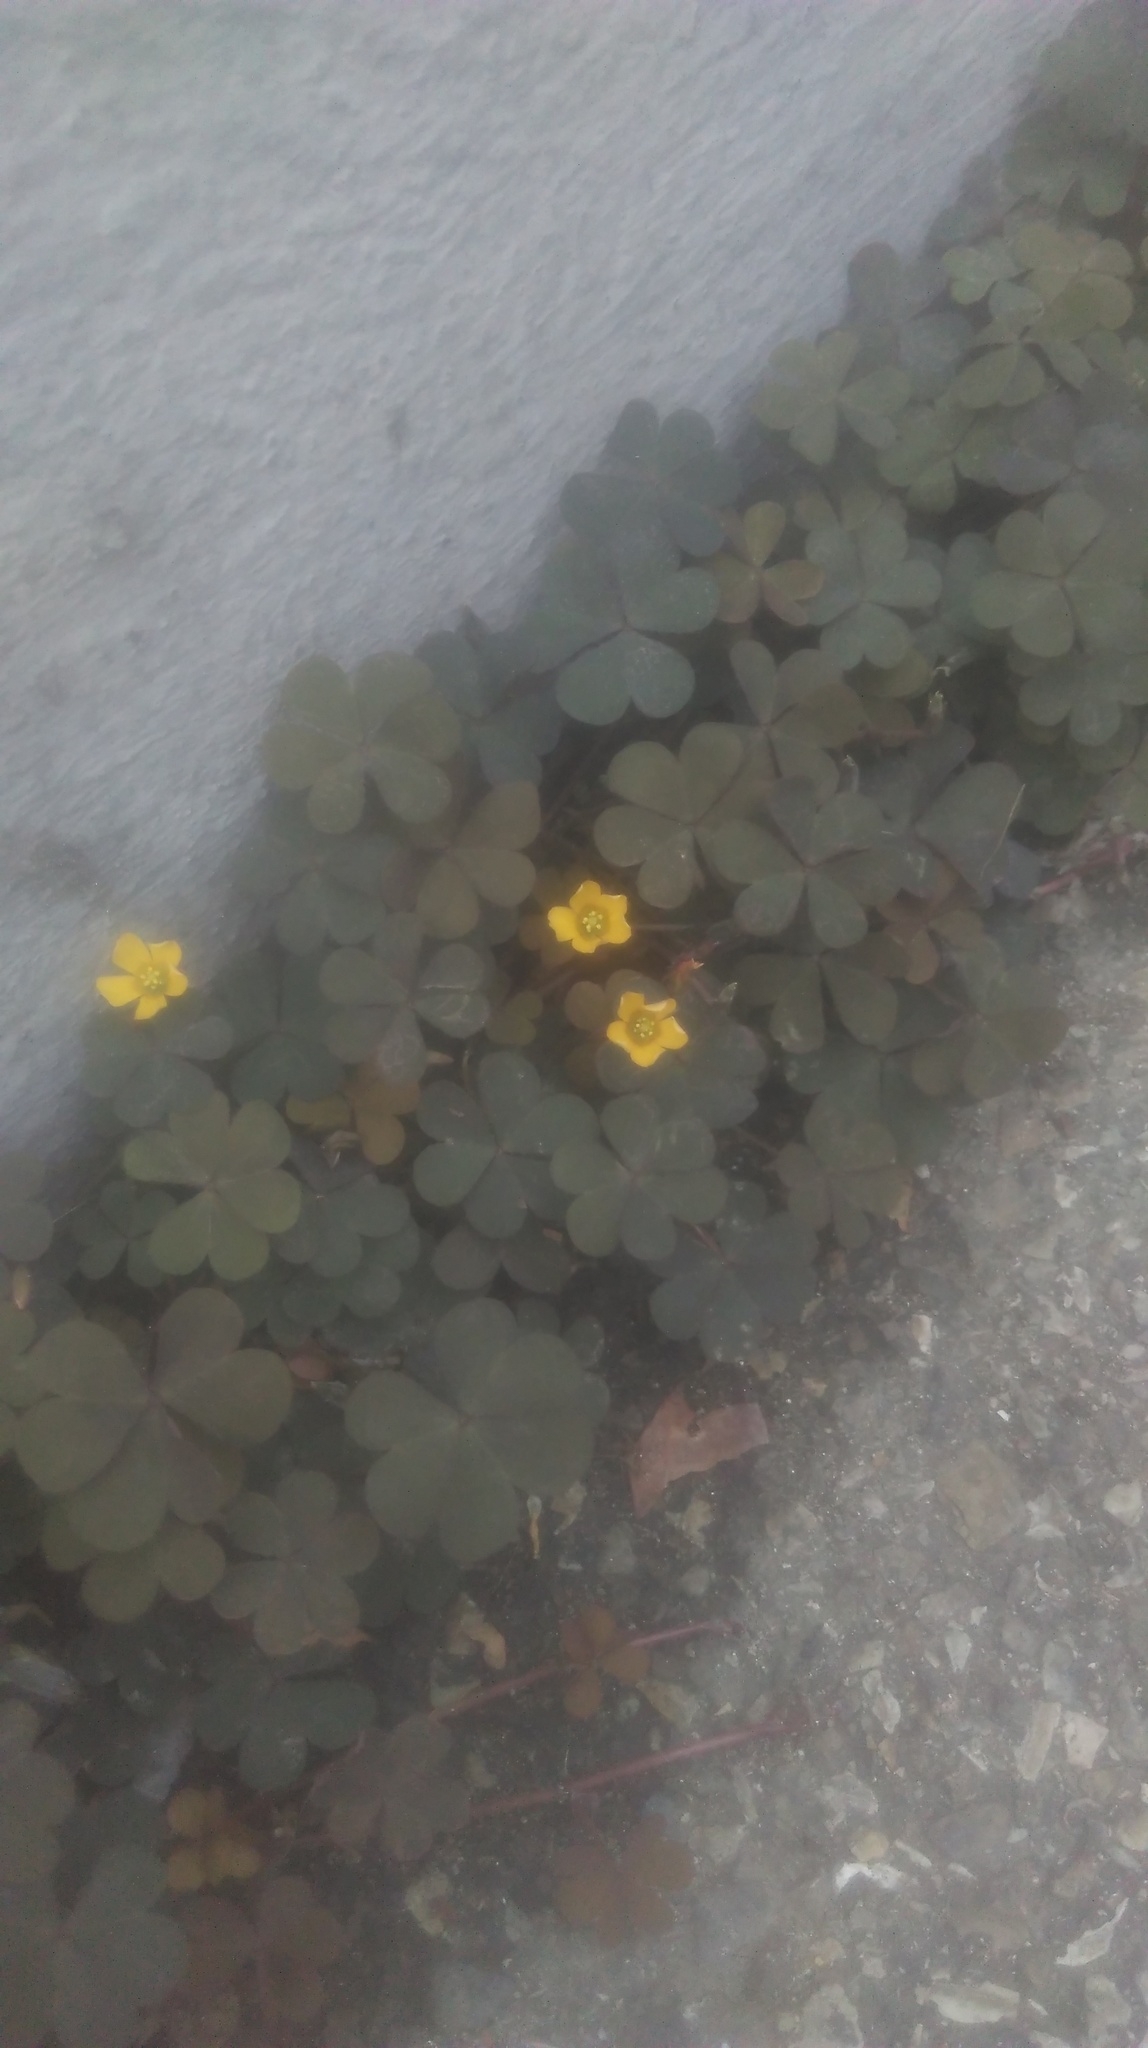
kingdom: Plantae
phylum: Tracheophyta
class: Magnoliopsida
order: Oxalidales
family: Oxalidaceae
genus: Oxalis
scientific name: Oxalis corniculata
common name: Procumbent yellow-sorrel
